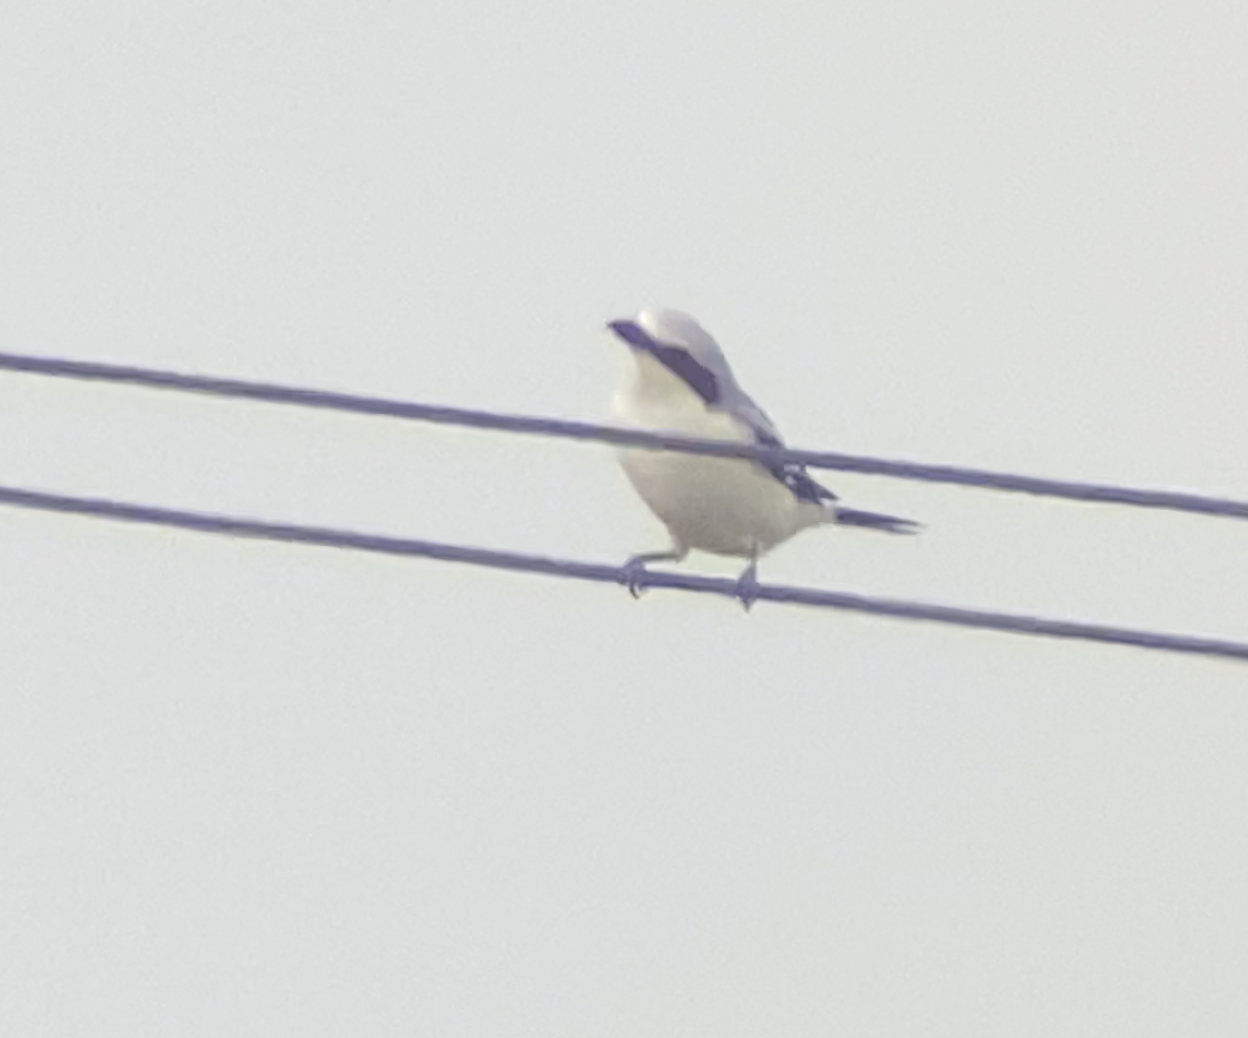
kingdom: Animalia
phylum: Chordata
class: Aves
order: Passeriformes
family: Laniidae
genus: Lanius
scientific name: Lanius excubitor
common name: Great grey shrike
